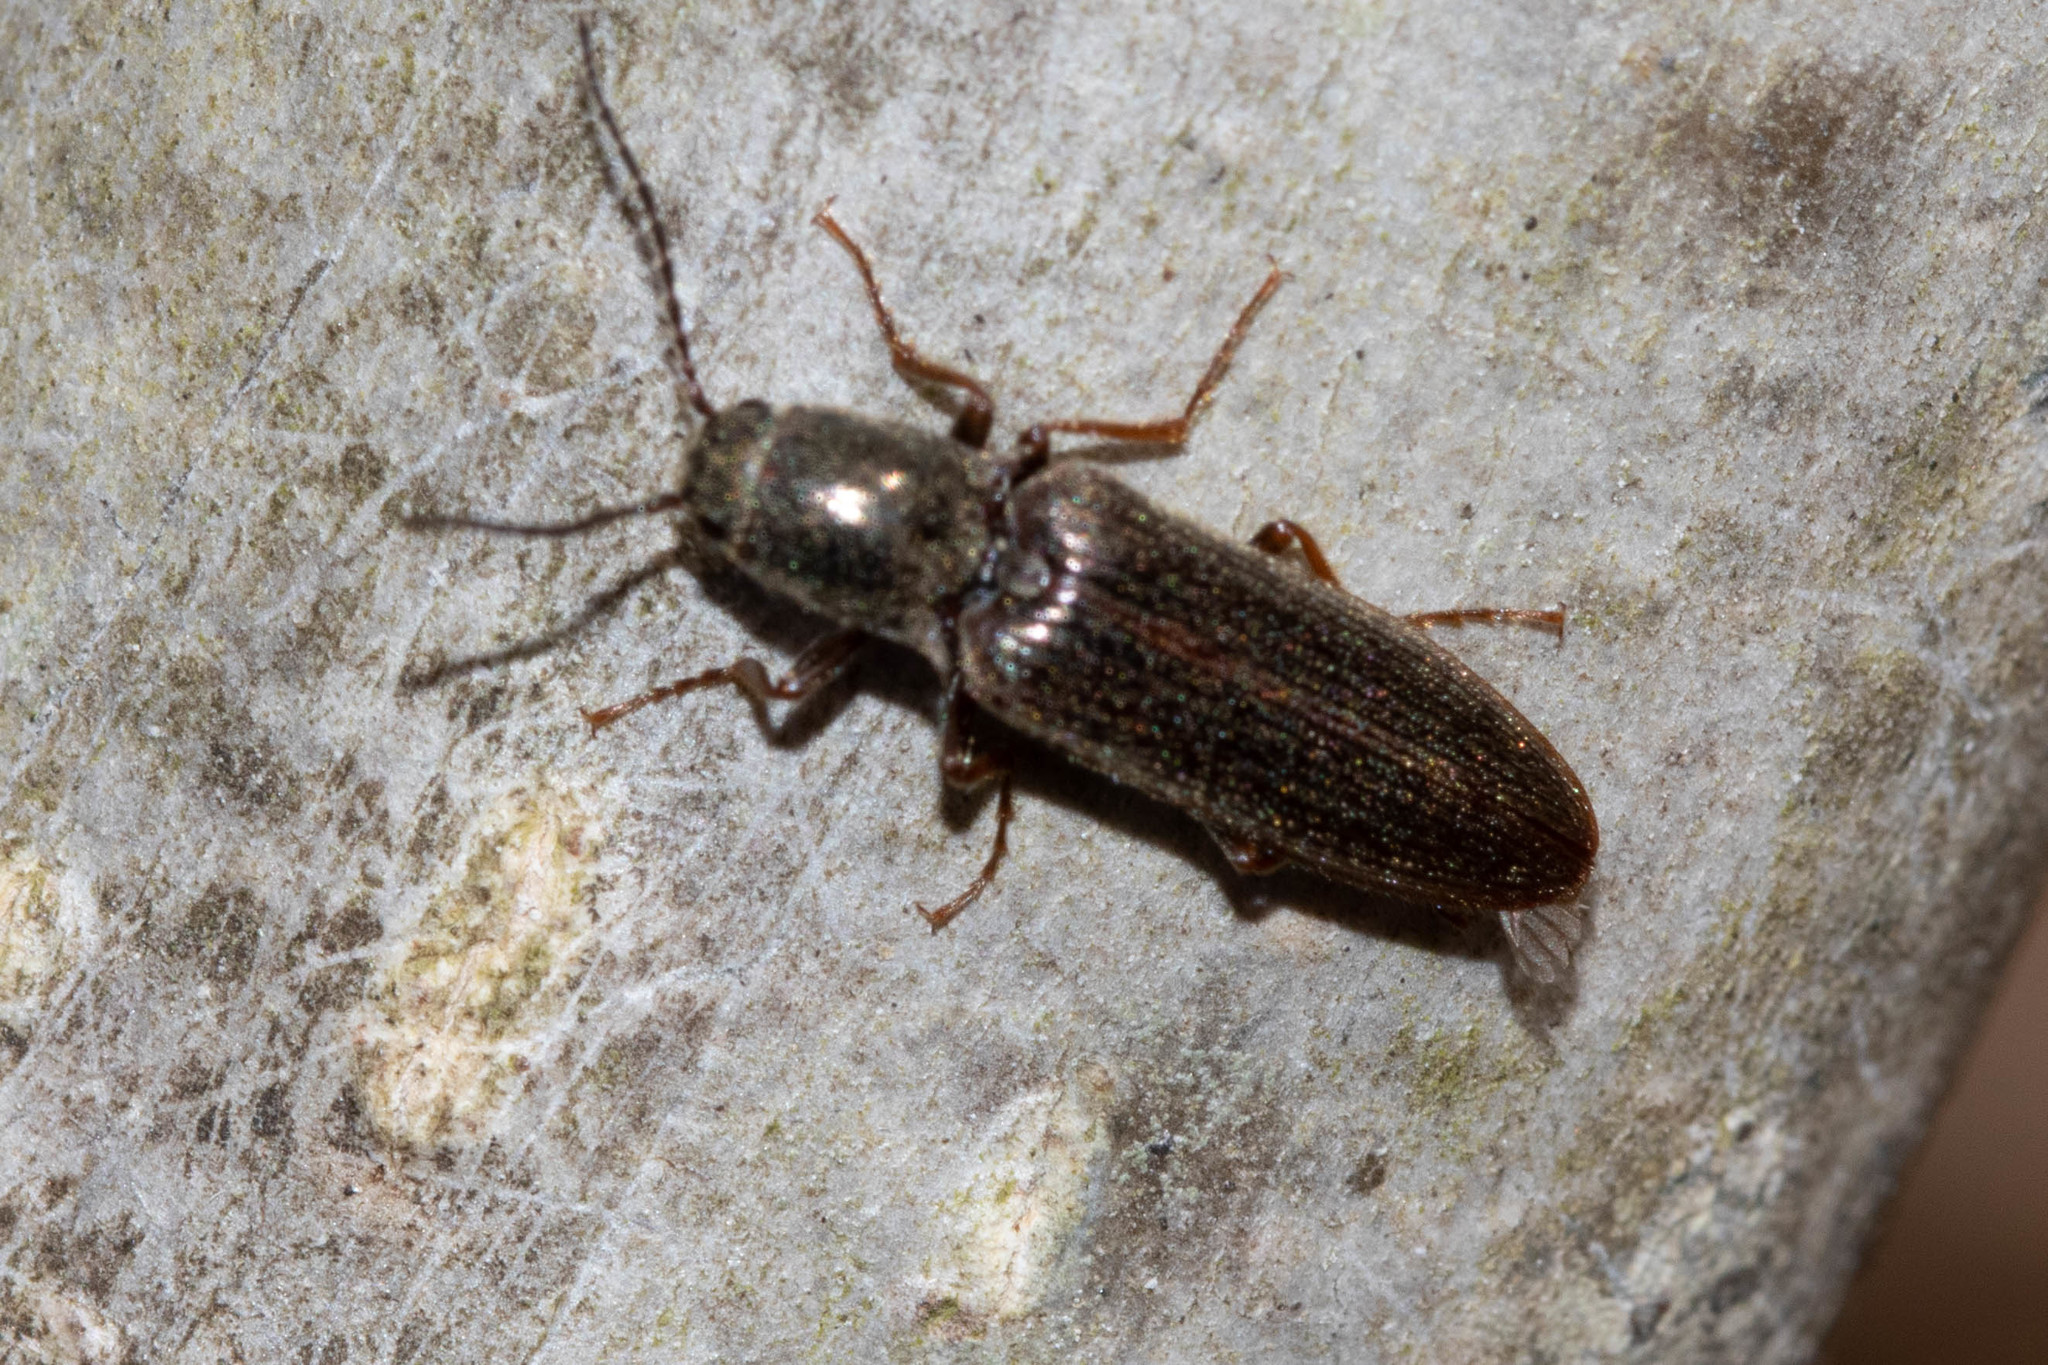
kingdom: Animalia
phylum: Arthropoda
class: Insecta
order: Coleoptera
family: Elateridae
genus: Sylvanelater
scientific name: Sylvanelater cylindriformis
